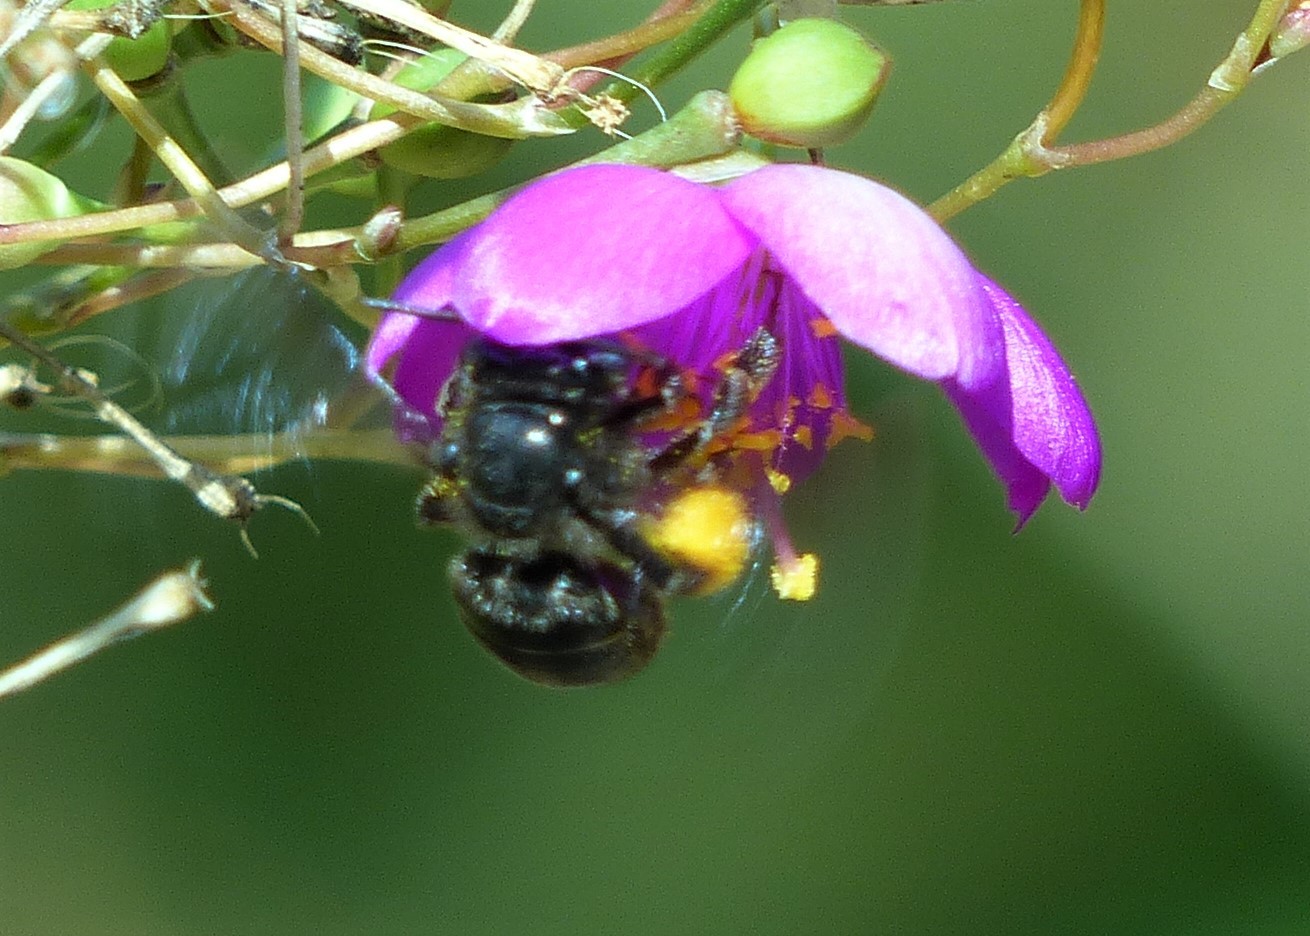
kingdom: Animalia
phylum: Arthropoda
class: Insecta
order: Hymenoptera
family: Apidae
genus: Melissodes
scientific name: Melissodes bimaculatus
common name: Two-spotted long-horned bee
